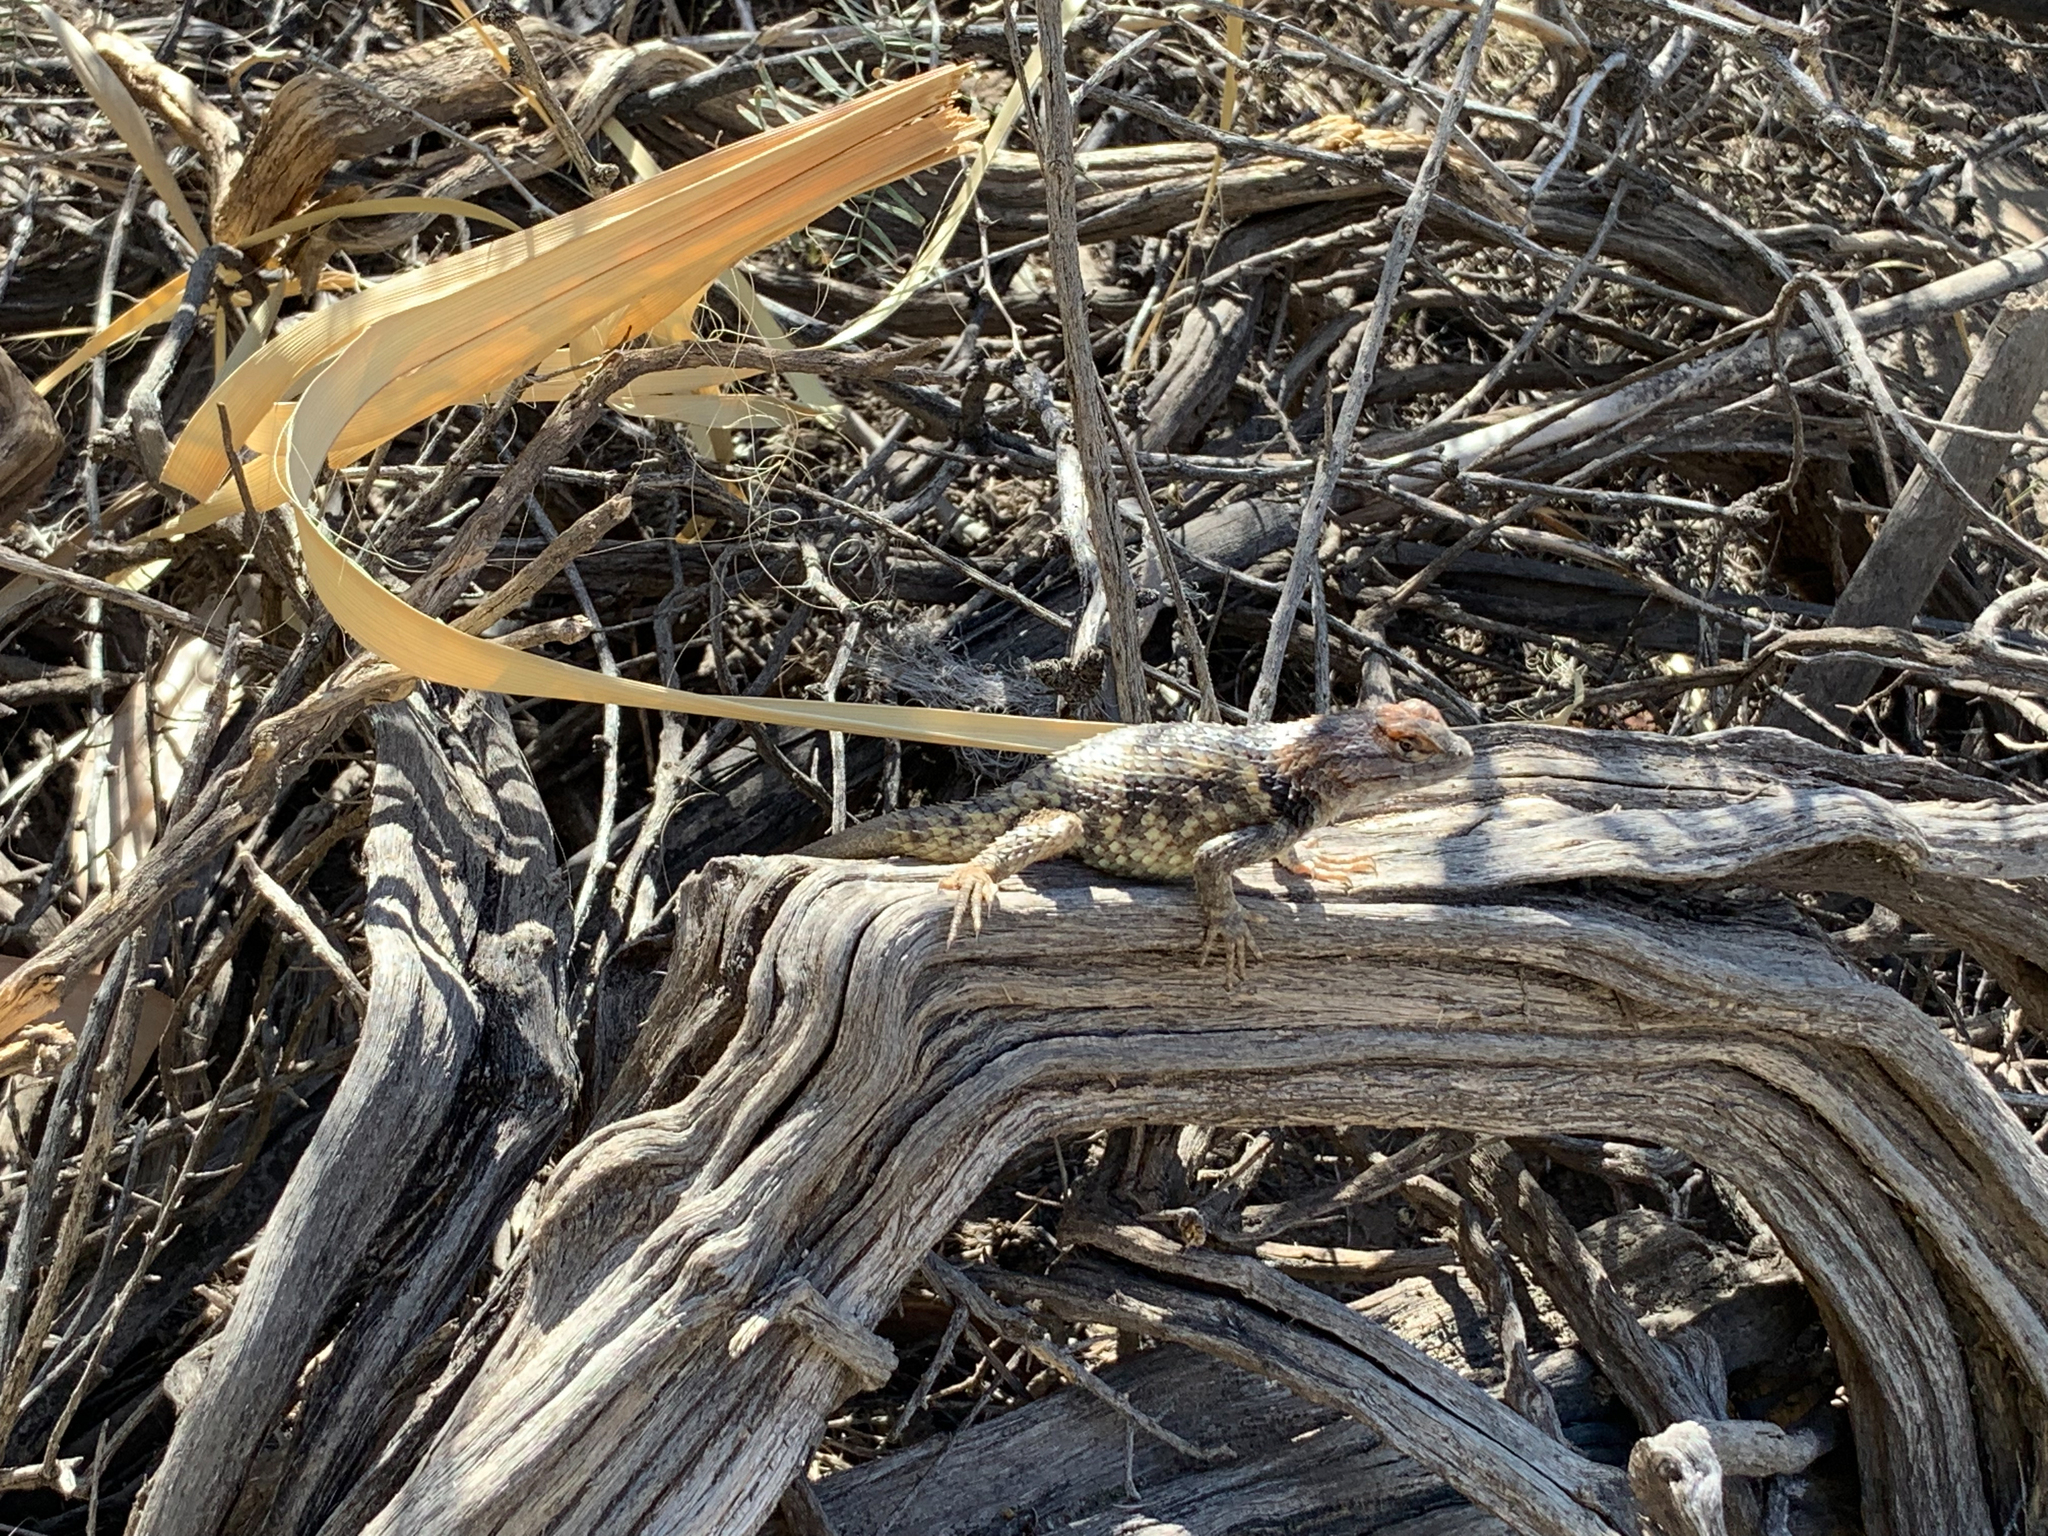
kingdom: Animalia
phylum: Chordata
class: Squamata
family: Phrynosomatidae
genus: Sceloporus
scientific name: Sceloporus magister
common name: Desert spiny lizard
